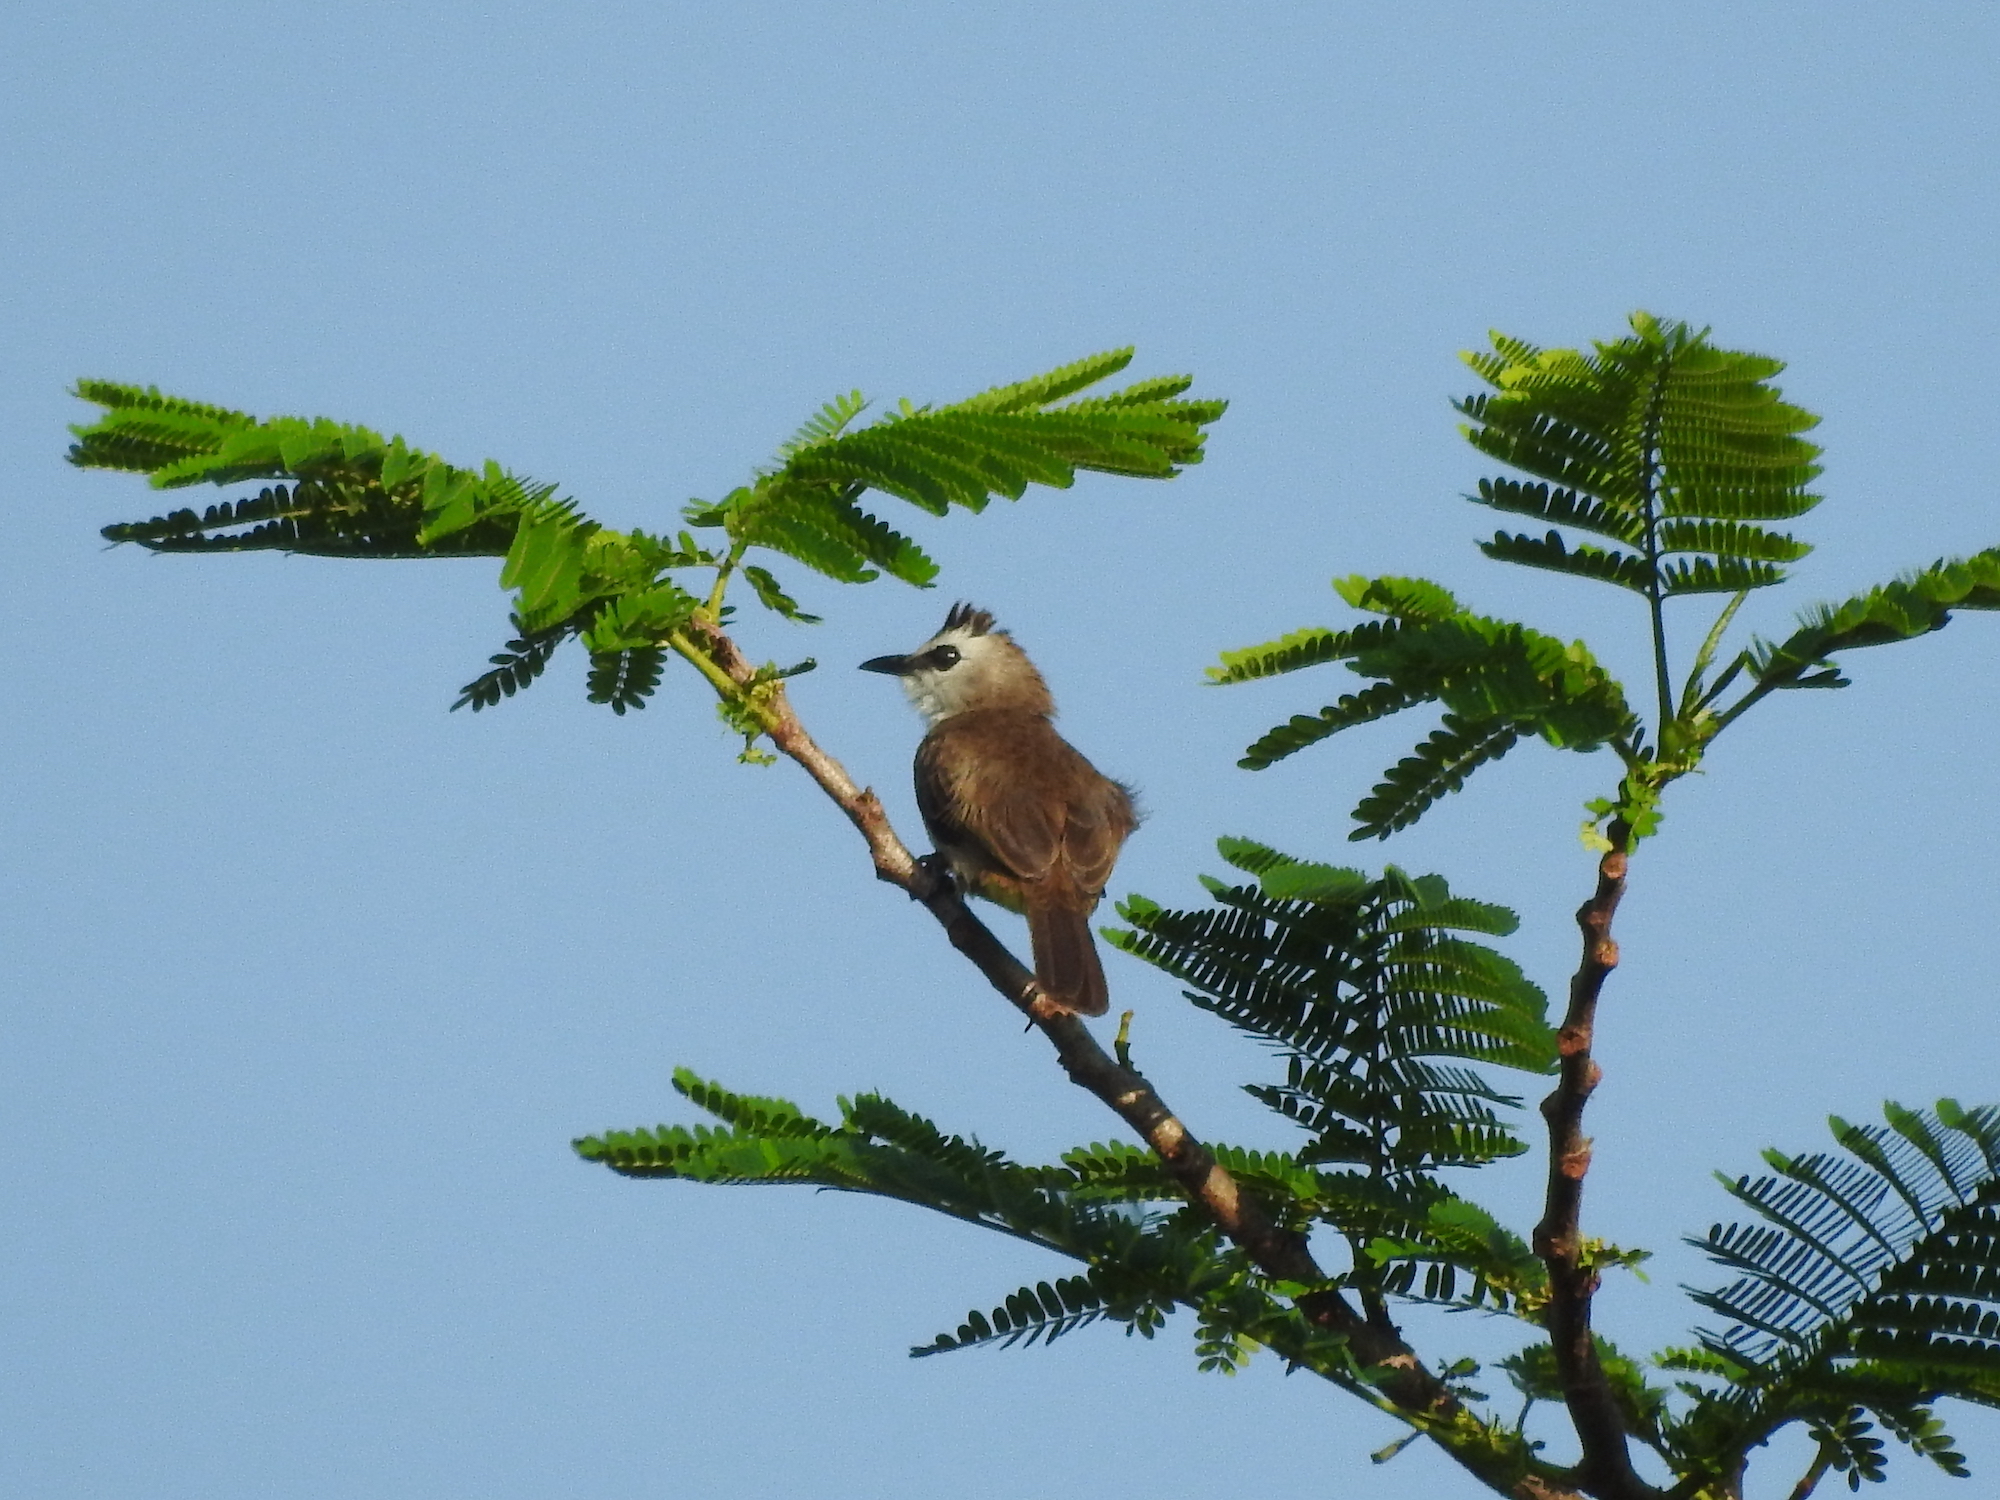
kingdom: Animalia
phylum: Chordata
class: Aves
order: Passeriformes
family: Pycnonotidae
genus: Pycnonotus
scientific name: Pycnonotus goiavier
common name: Yellow-vented bulbul
